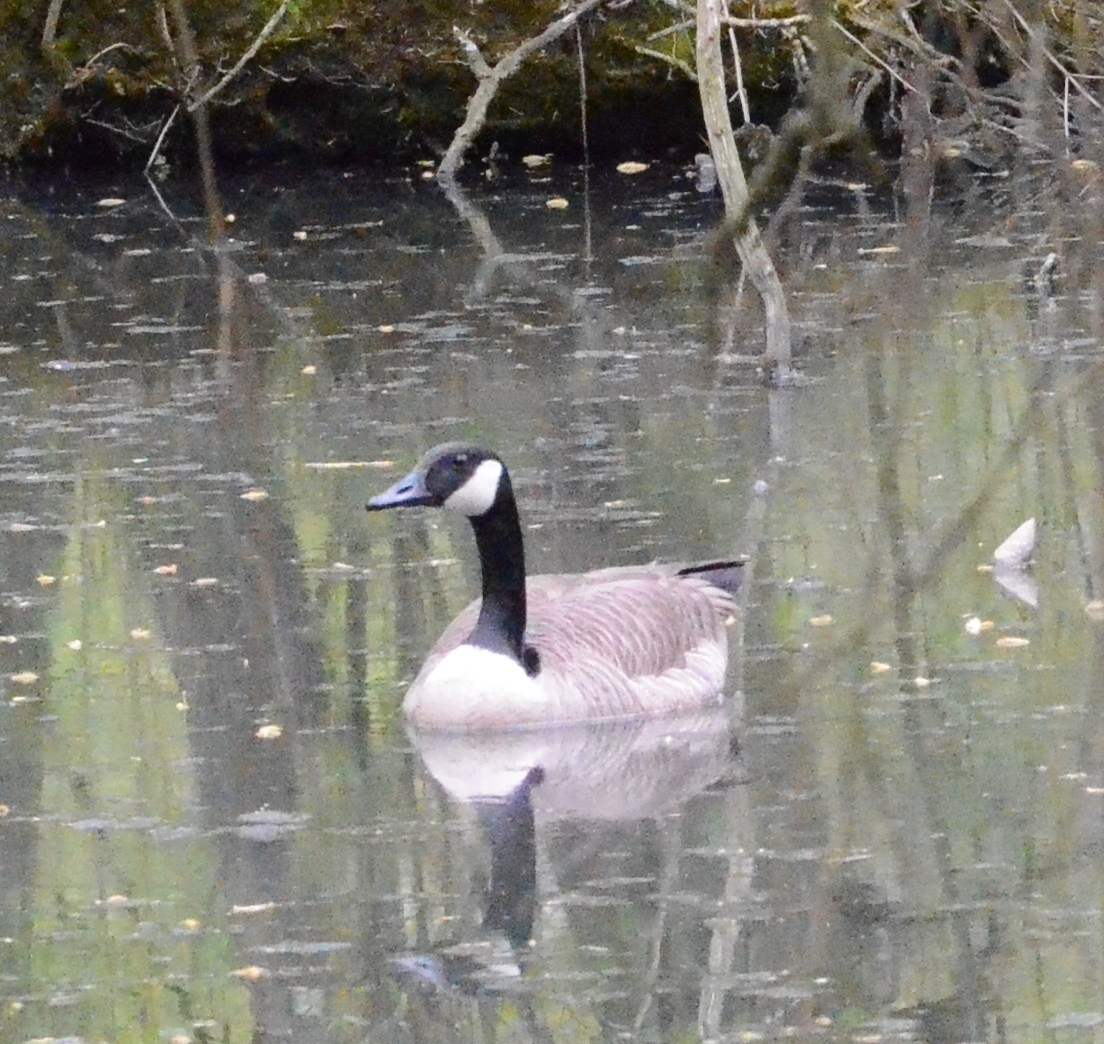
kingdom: Animalia
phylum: Chordata
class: Aves
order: Anseriformes
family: Anatidae
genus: Branta
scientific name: Branta canadensis
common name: Canada goose
